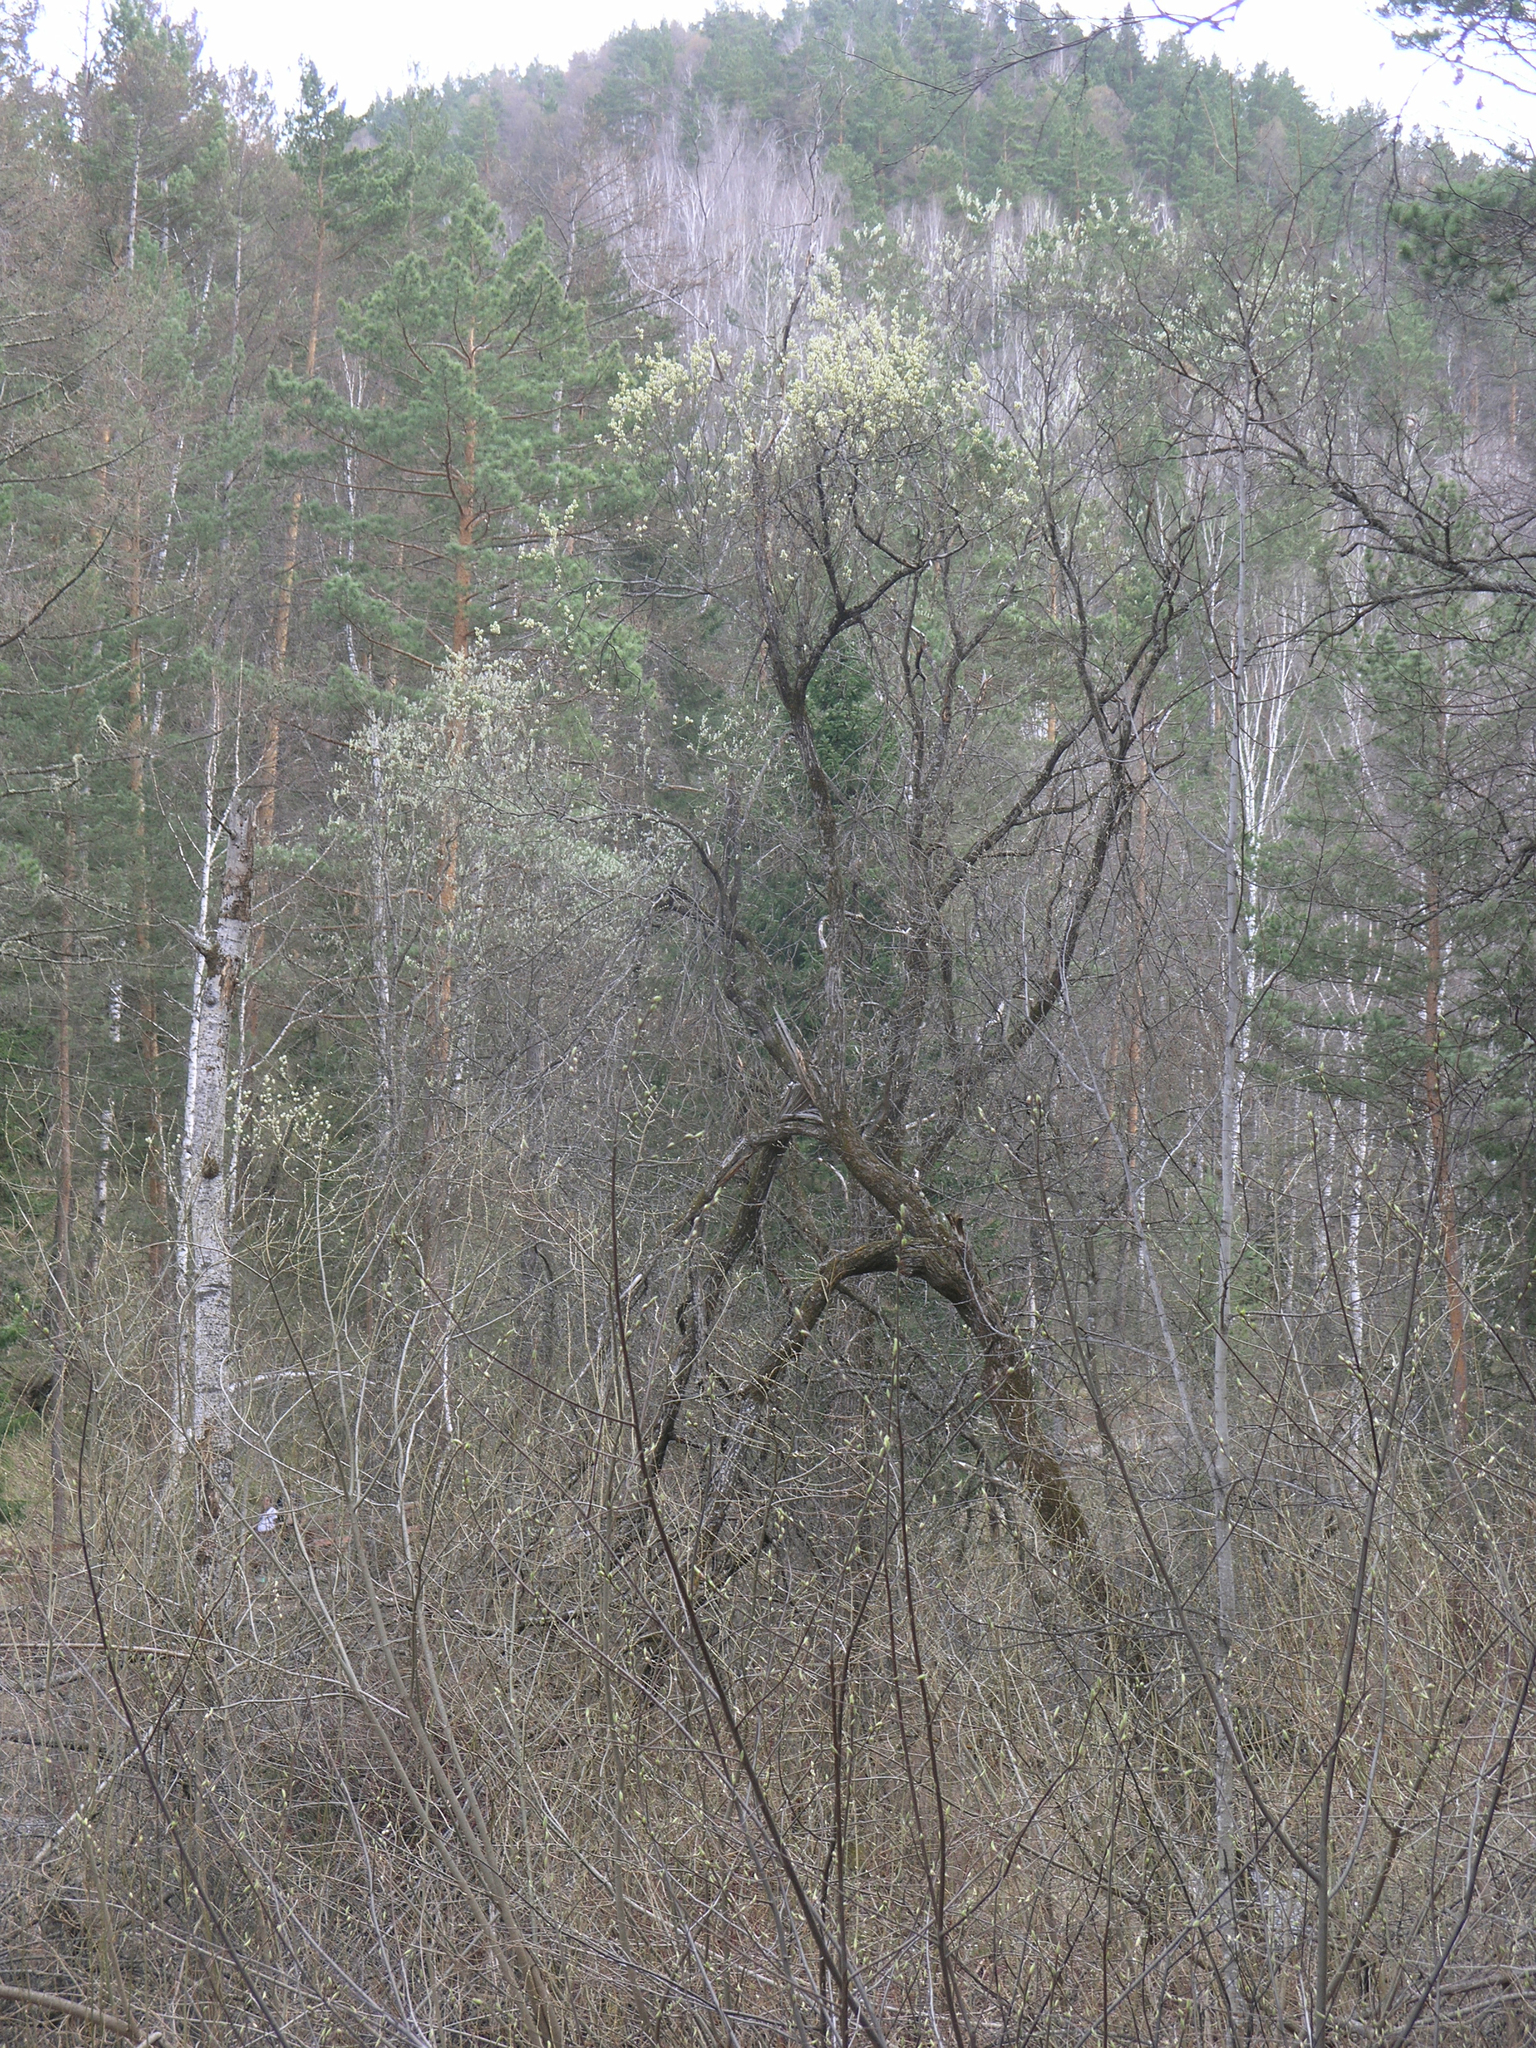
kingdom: Plantae
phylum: Tracheophyta
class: Magnoliopsida
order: Malpighiales
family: Salicaceae
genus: Salix
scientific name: Salix caprea
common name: Goat willow
